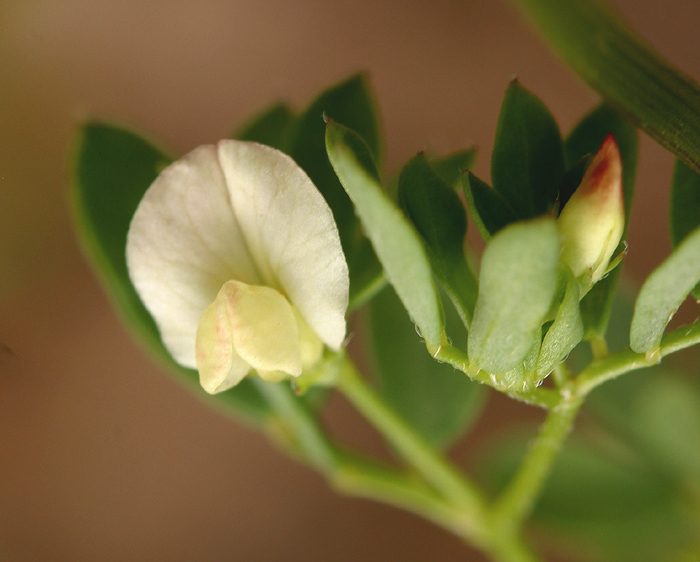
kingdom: Plantae
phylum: Tracheophyta
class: Magnoliopsida
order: Fabales
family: Fabaceae
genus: Acmispon
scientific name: Acmispon parviflorus
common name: Desert deer-vetch
